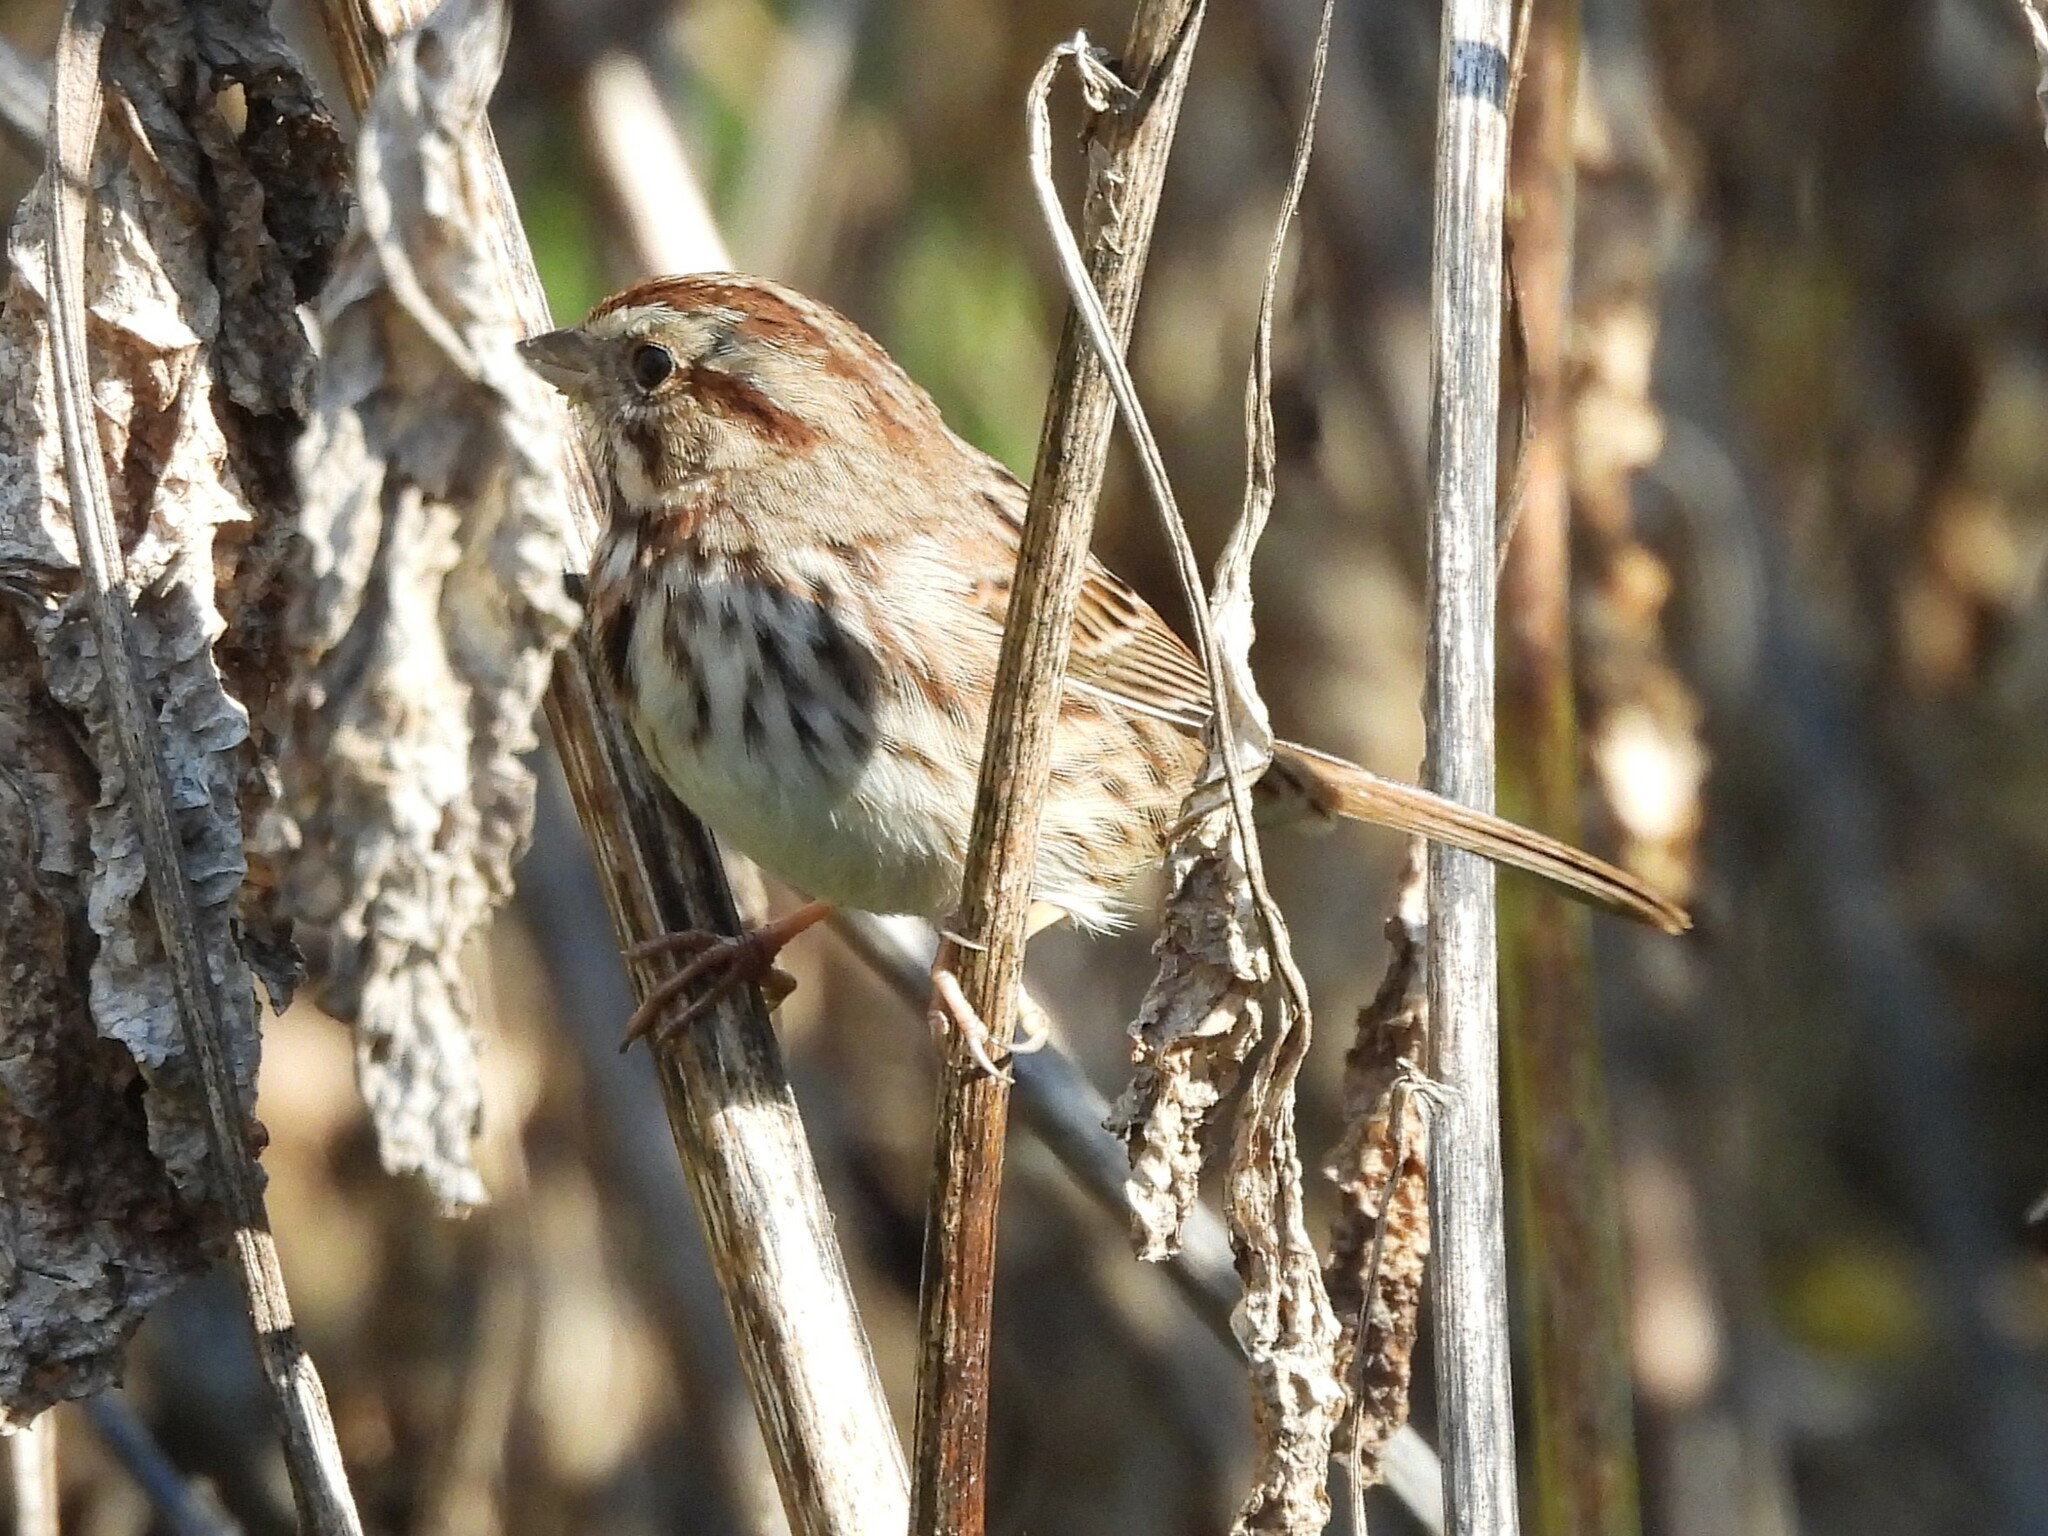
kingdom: Animalia
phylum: Chordata
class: Aves
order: Passeriformes
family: Passerellidae
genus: Melospiza
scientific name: Melospiza melodia
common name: Song sparrow
